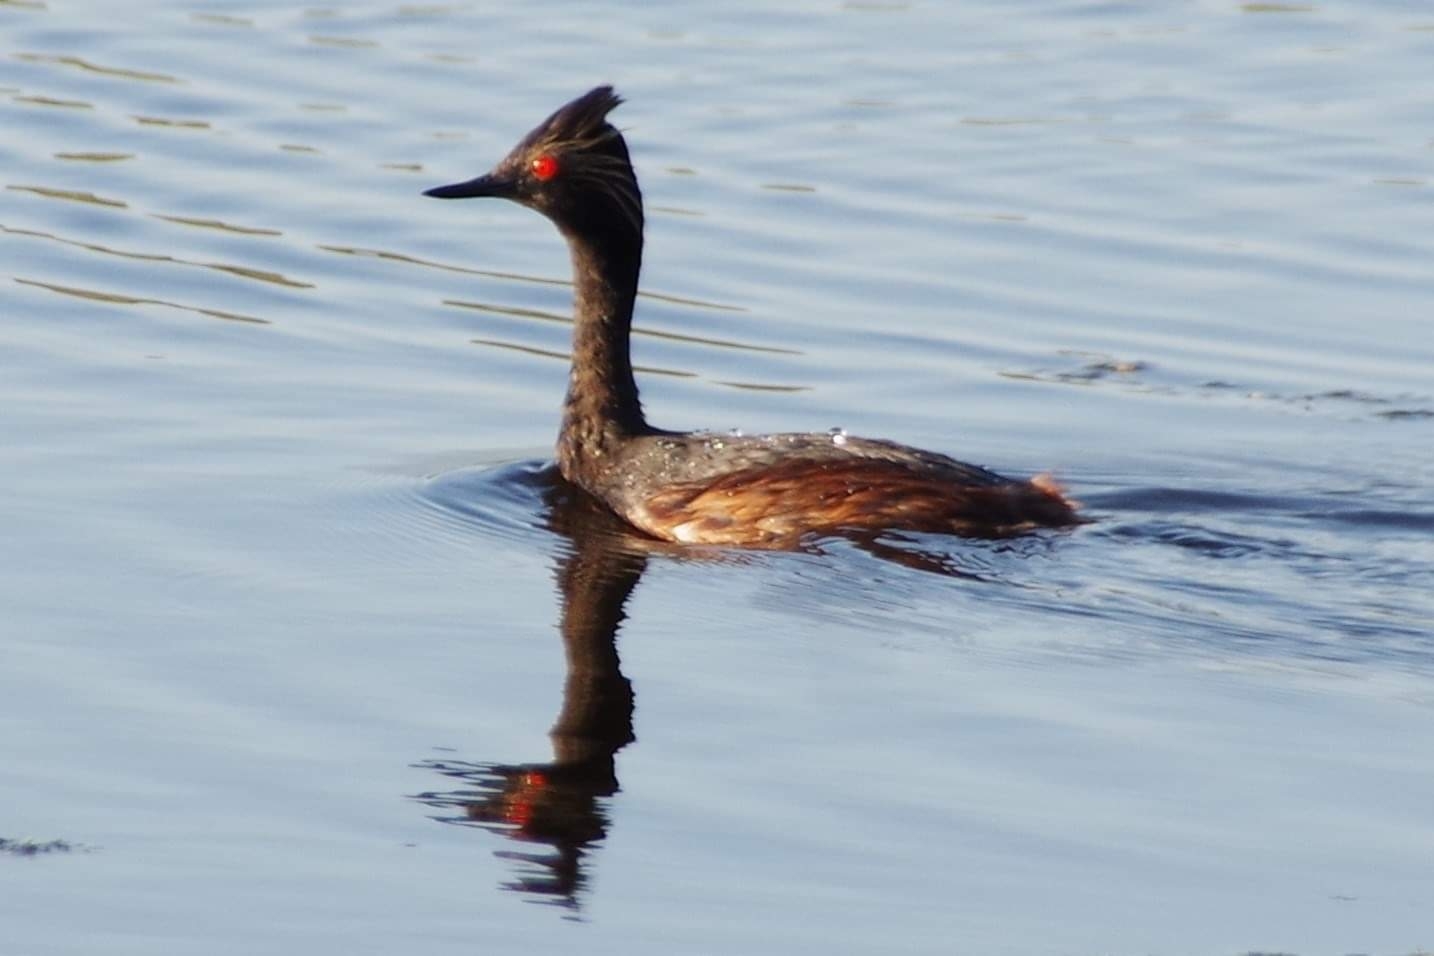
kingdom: Animalia
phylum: Chordata
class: Aves
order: Podicipediformes
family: Podicipedidae
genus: Podiceps
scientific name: Podiceps nigricollis
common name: Black-necked grebe
